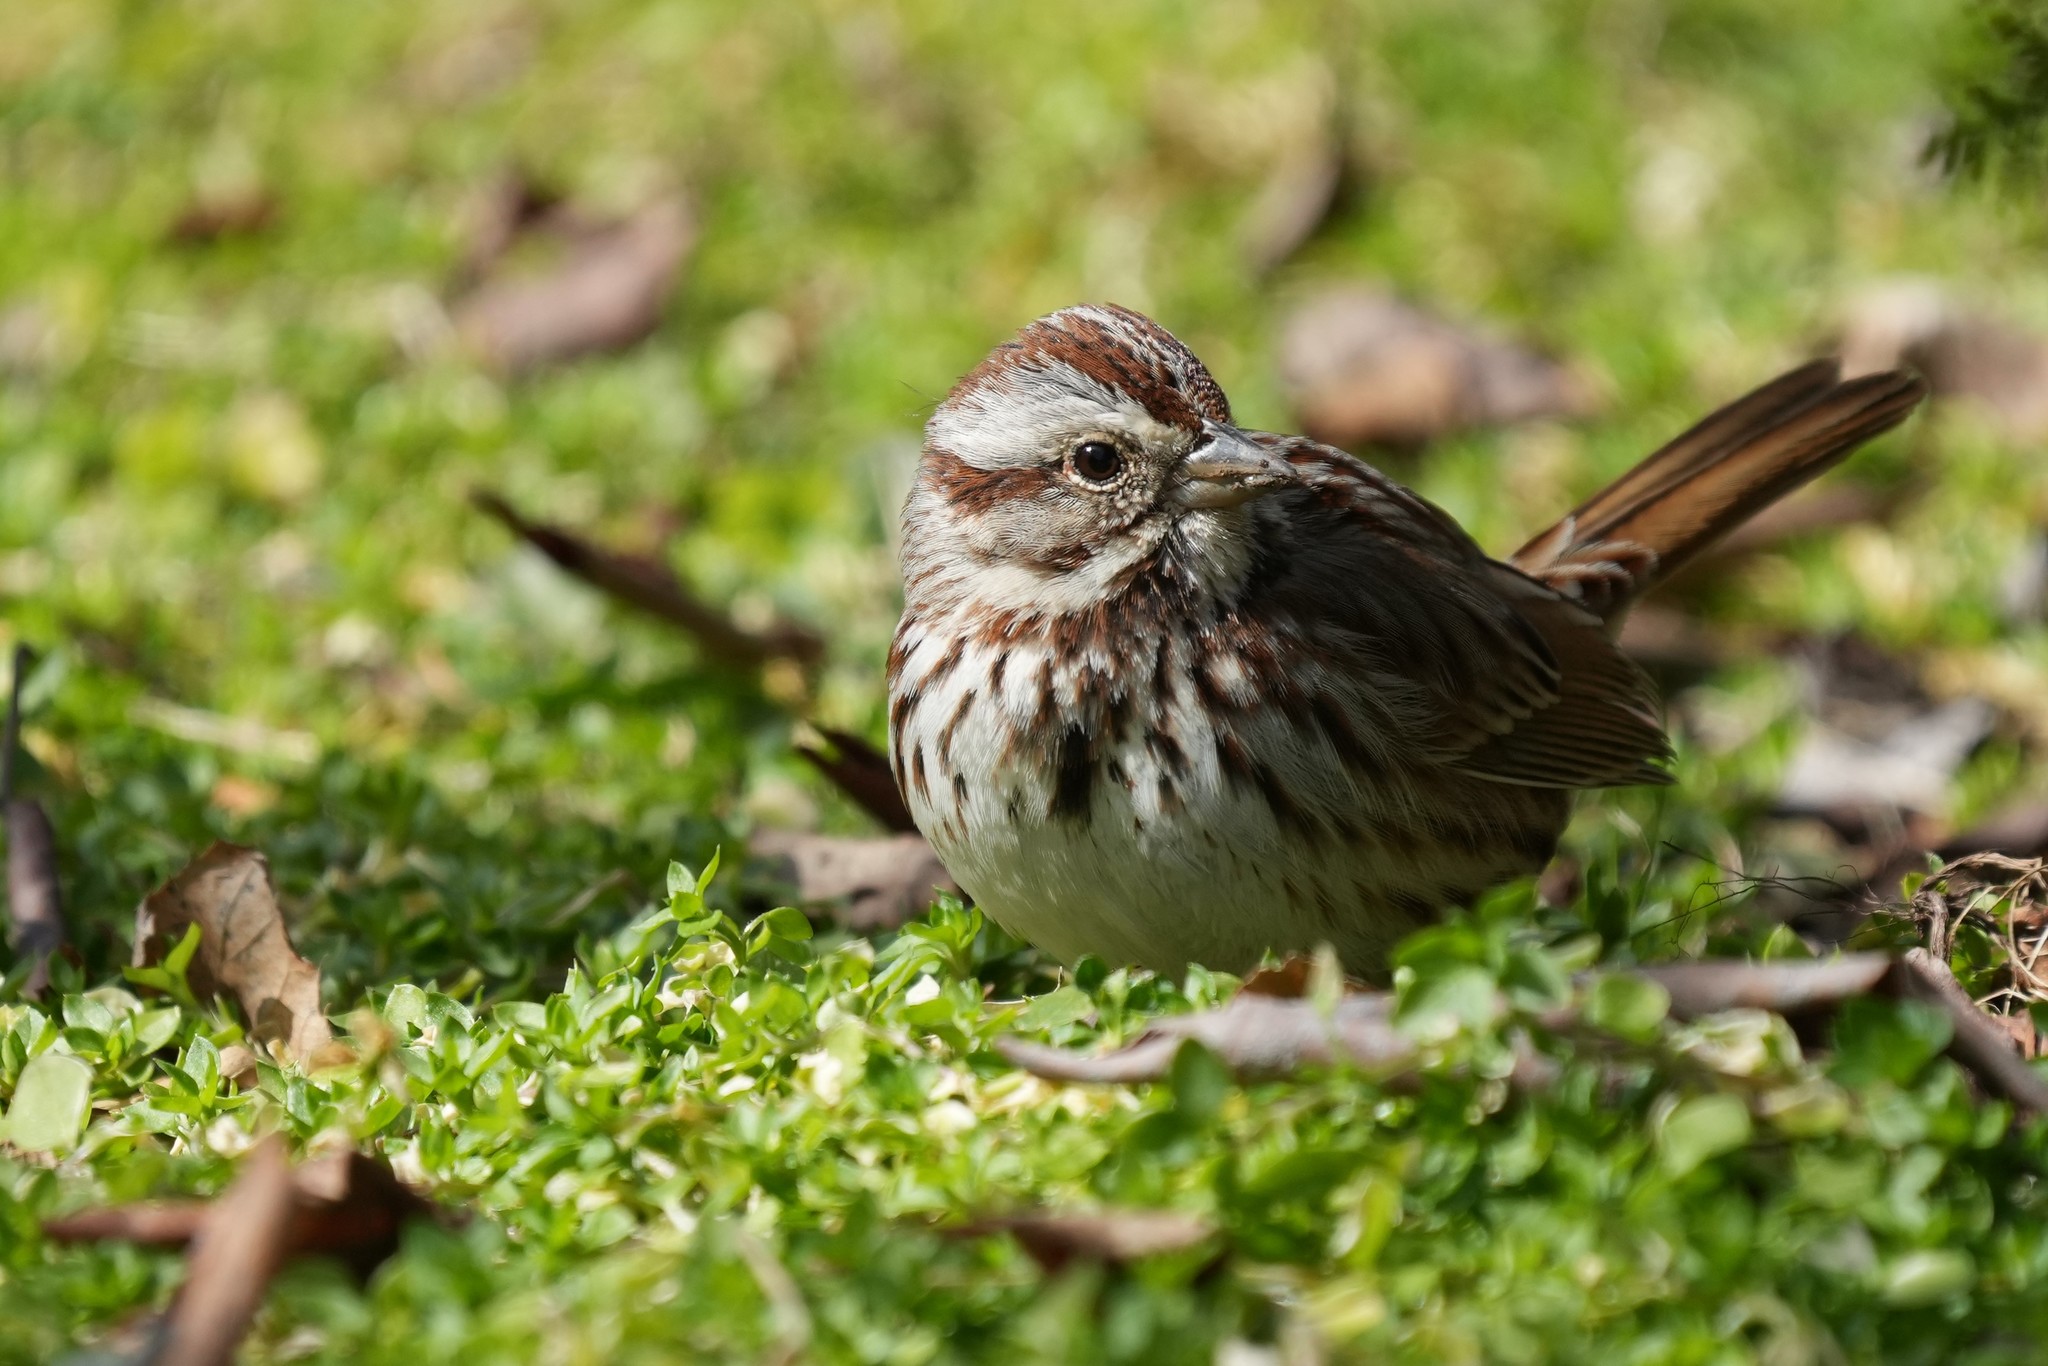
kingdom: Animalia
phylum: Chordata
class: Aves
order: Passeriformes
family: Passerellidae
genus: Melospiza
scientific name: Melospiza melodia
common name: Song sparrow
